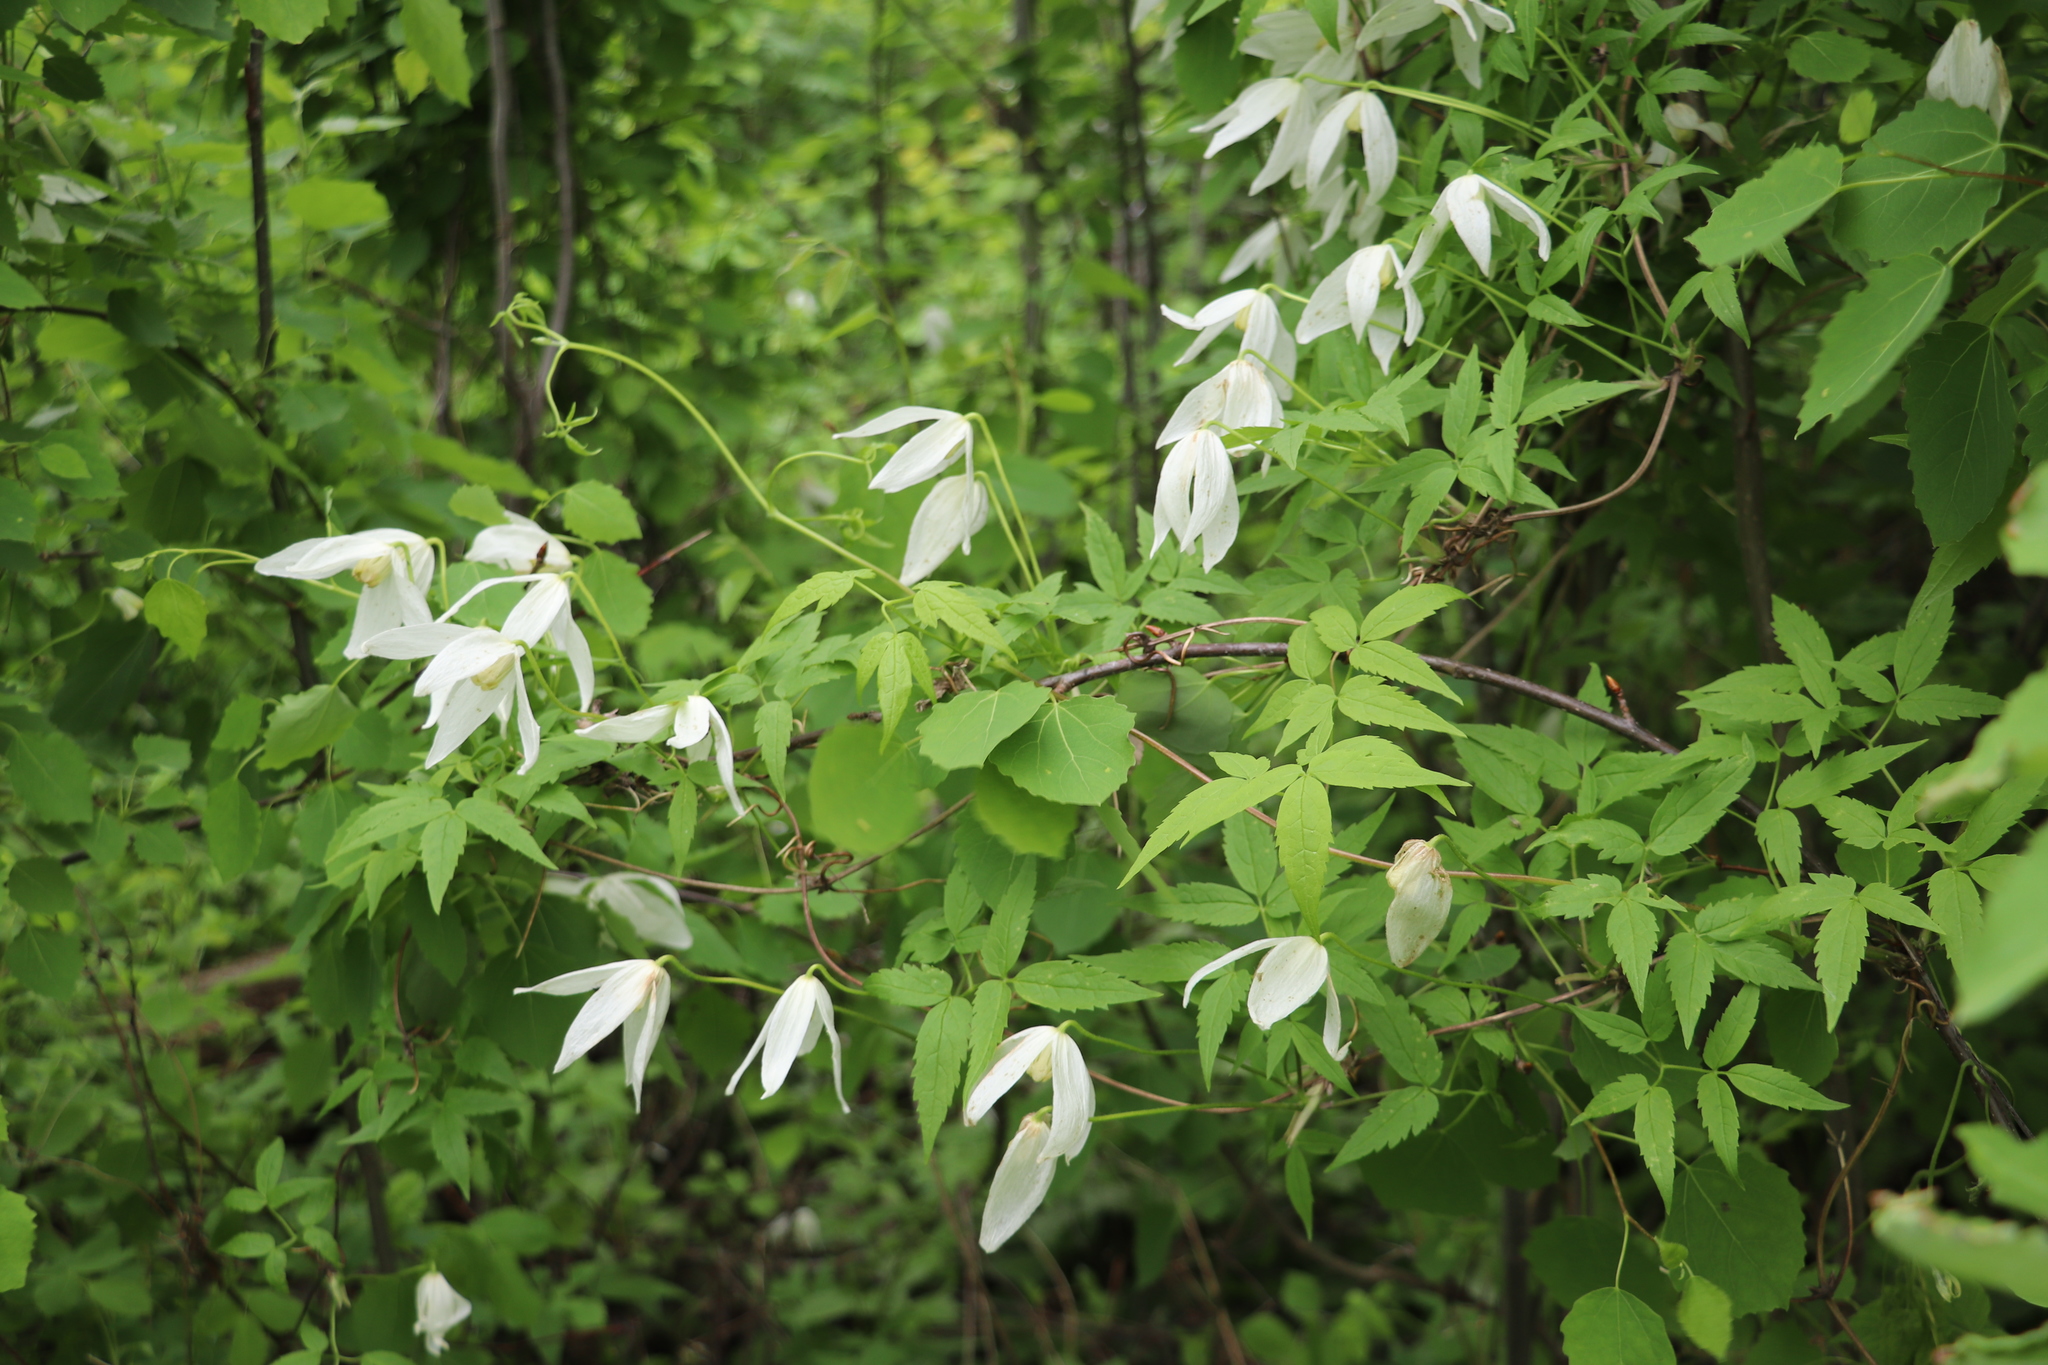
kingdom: Plantae
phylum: Tracheophyta
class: Magnoliopsida
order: Ranunculales
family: Ranunculaceae
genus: Clematis
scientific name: Clematis sibirica
